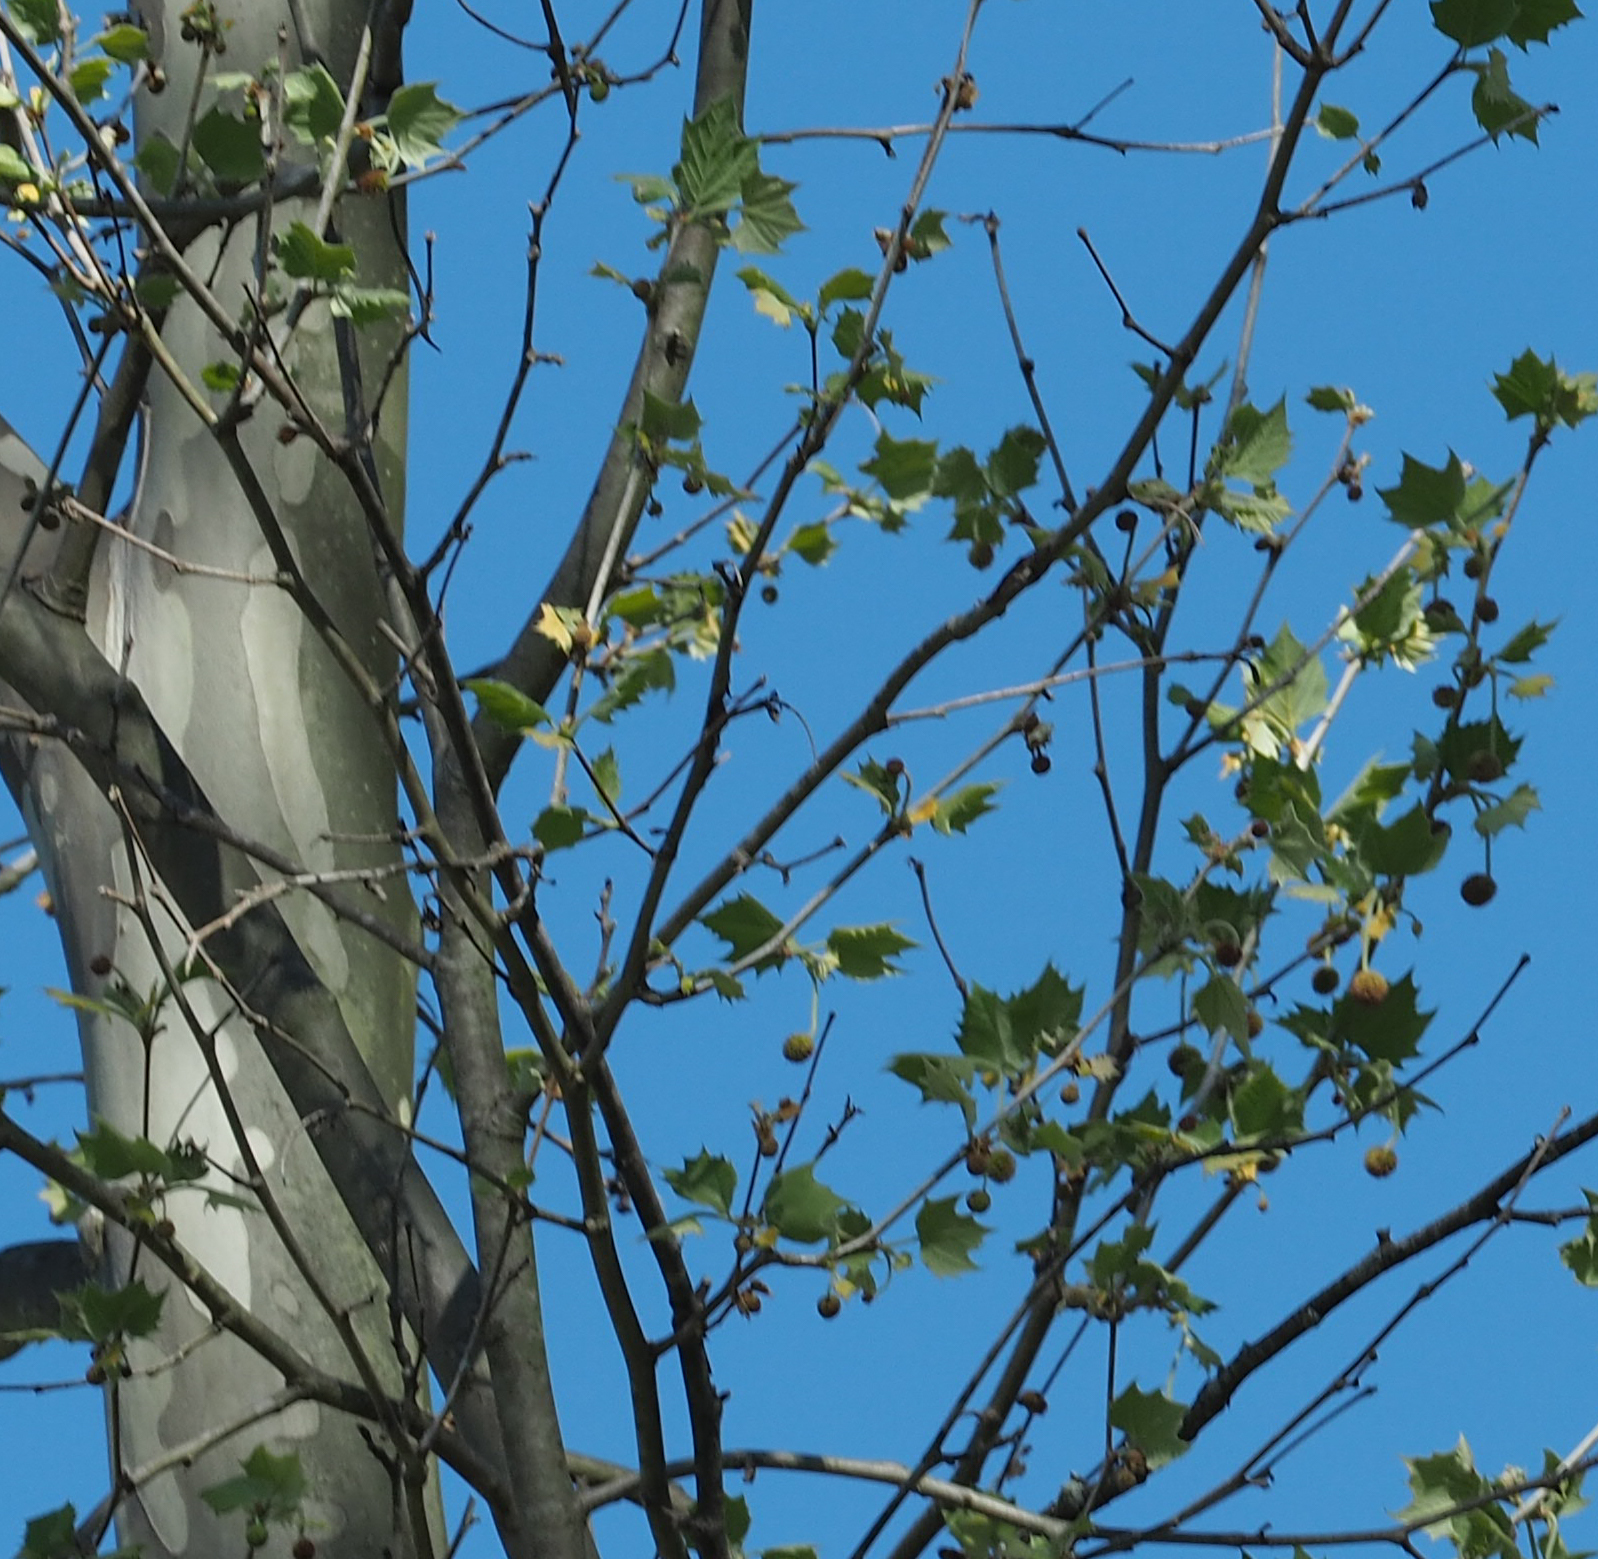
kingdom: Plantae
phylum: Tracheophyta
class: Magnoliopsida
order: Proteales
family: Platanaceae
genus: Platanus
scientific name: Platanus occidentalis
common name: American sycamore
